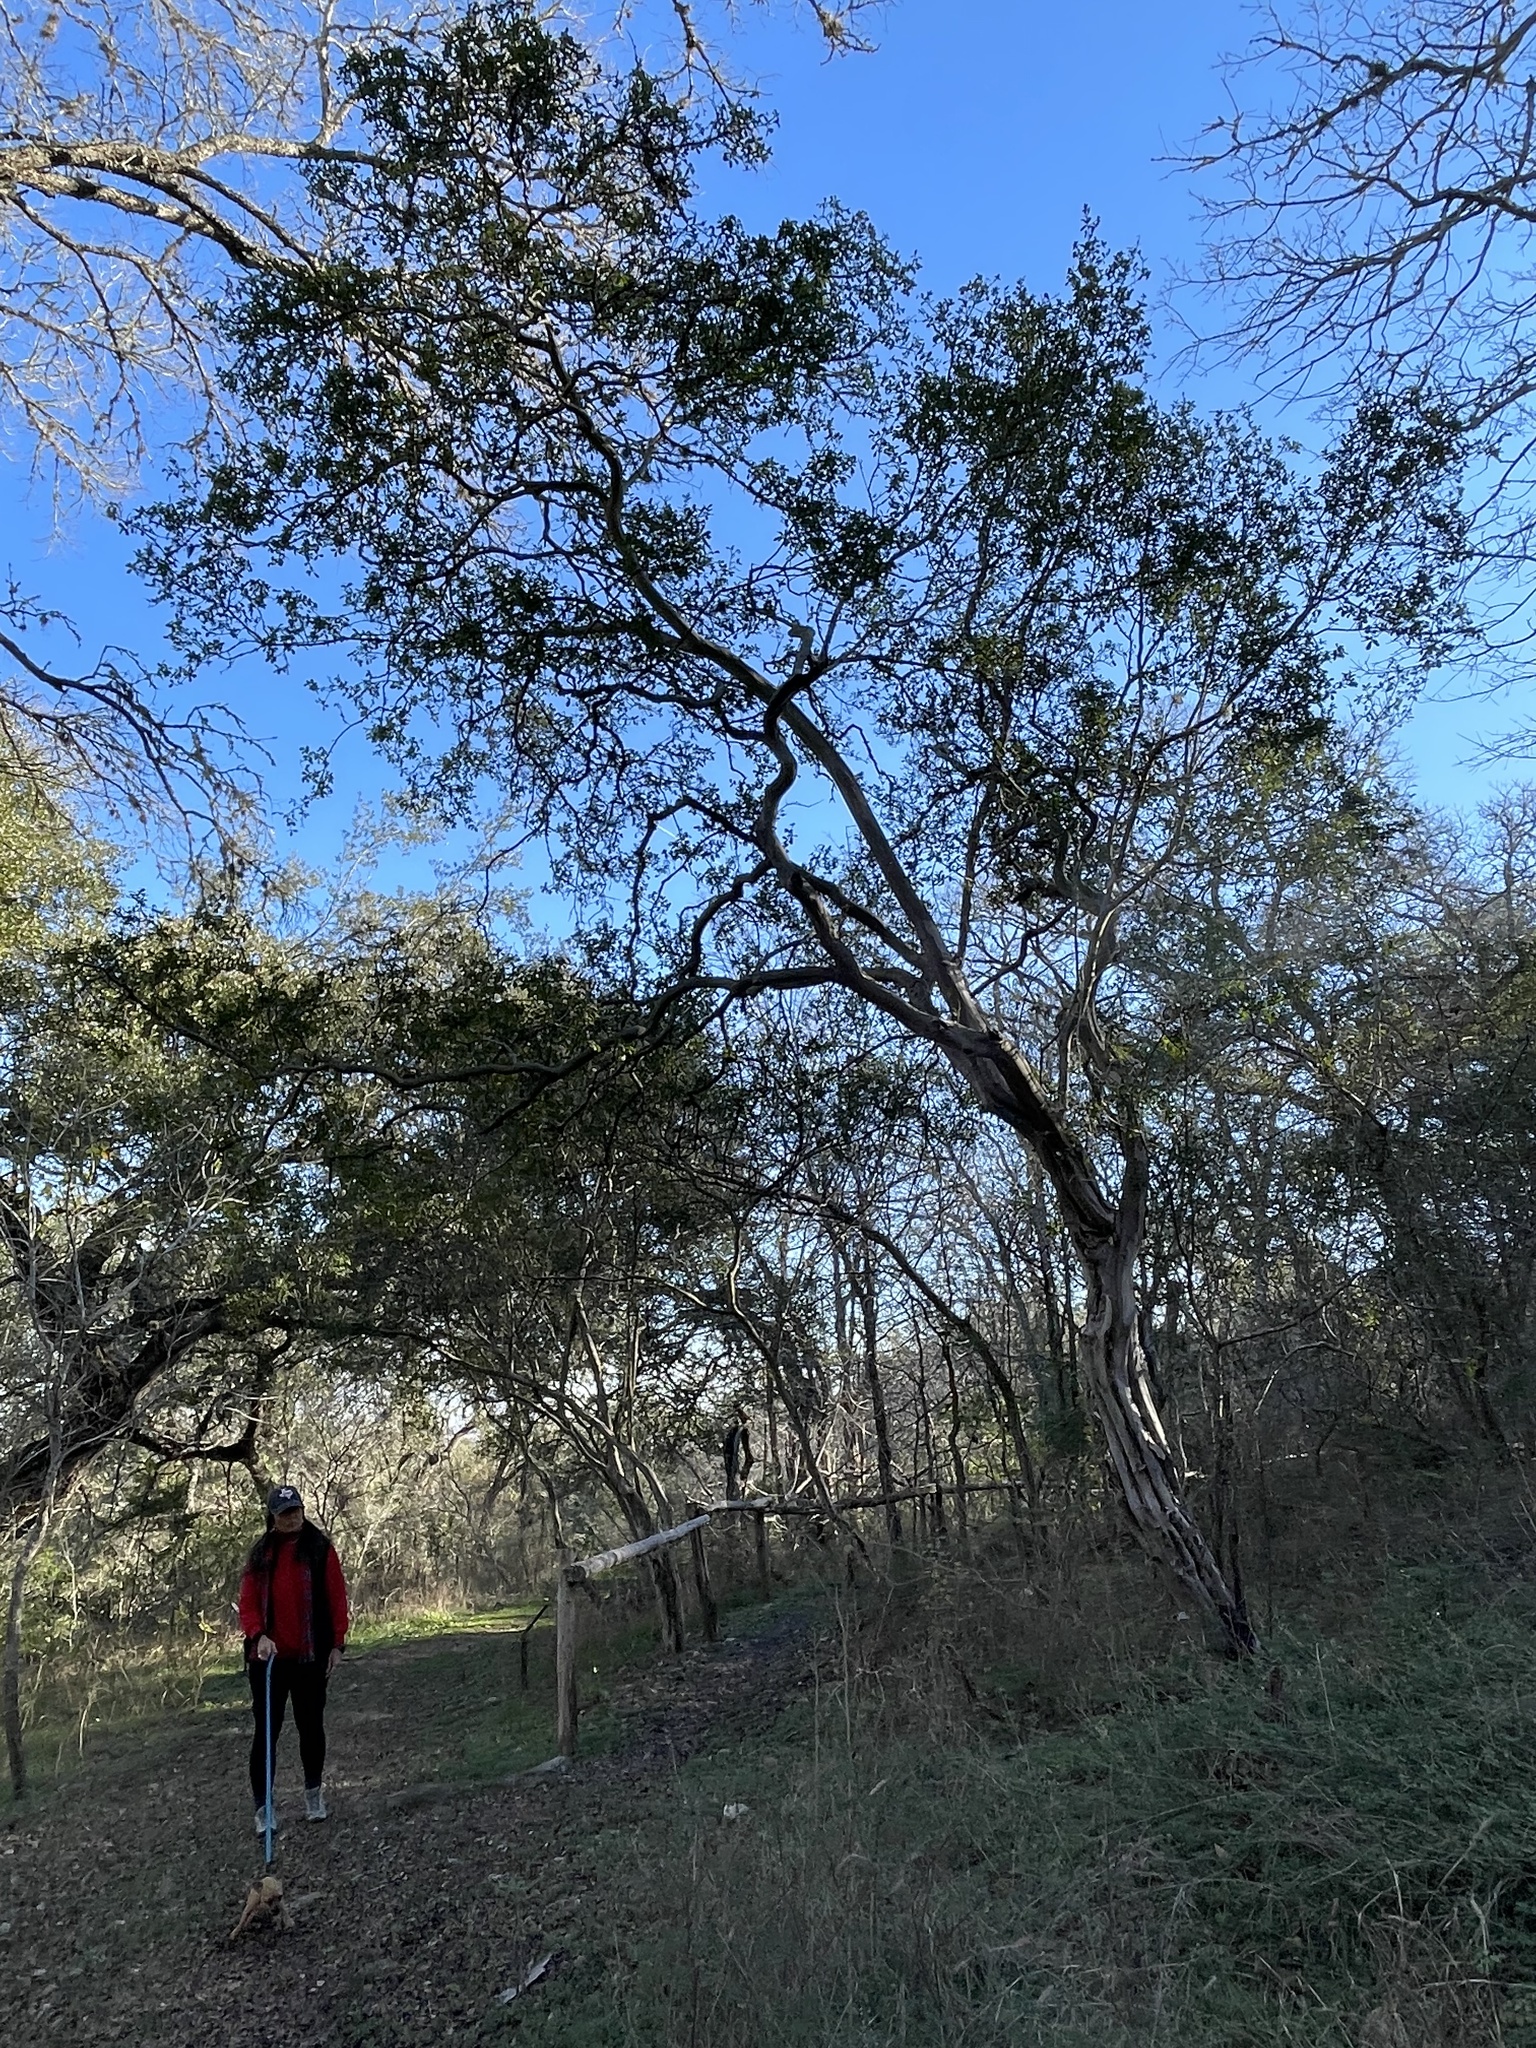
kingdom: Plantae
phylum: Tracheophyta
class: Magnoliopsida
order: Ericales
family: Ebenaceae
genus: Diospyros
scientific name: Diospyros texana
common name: Texas persimmon
